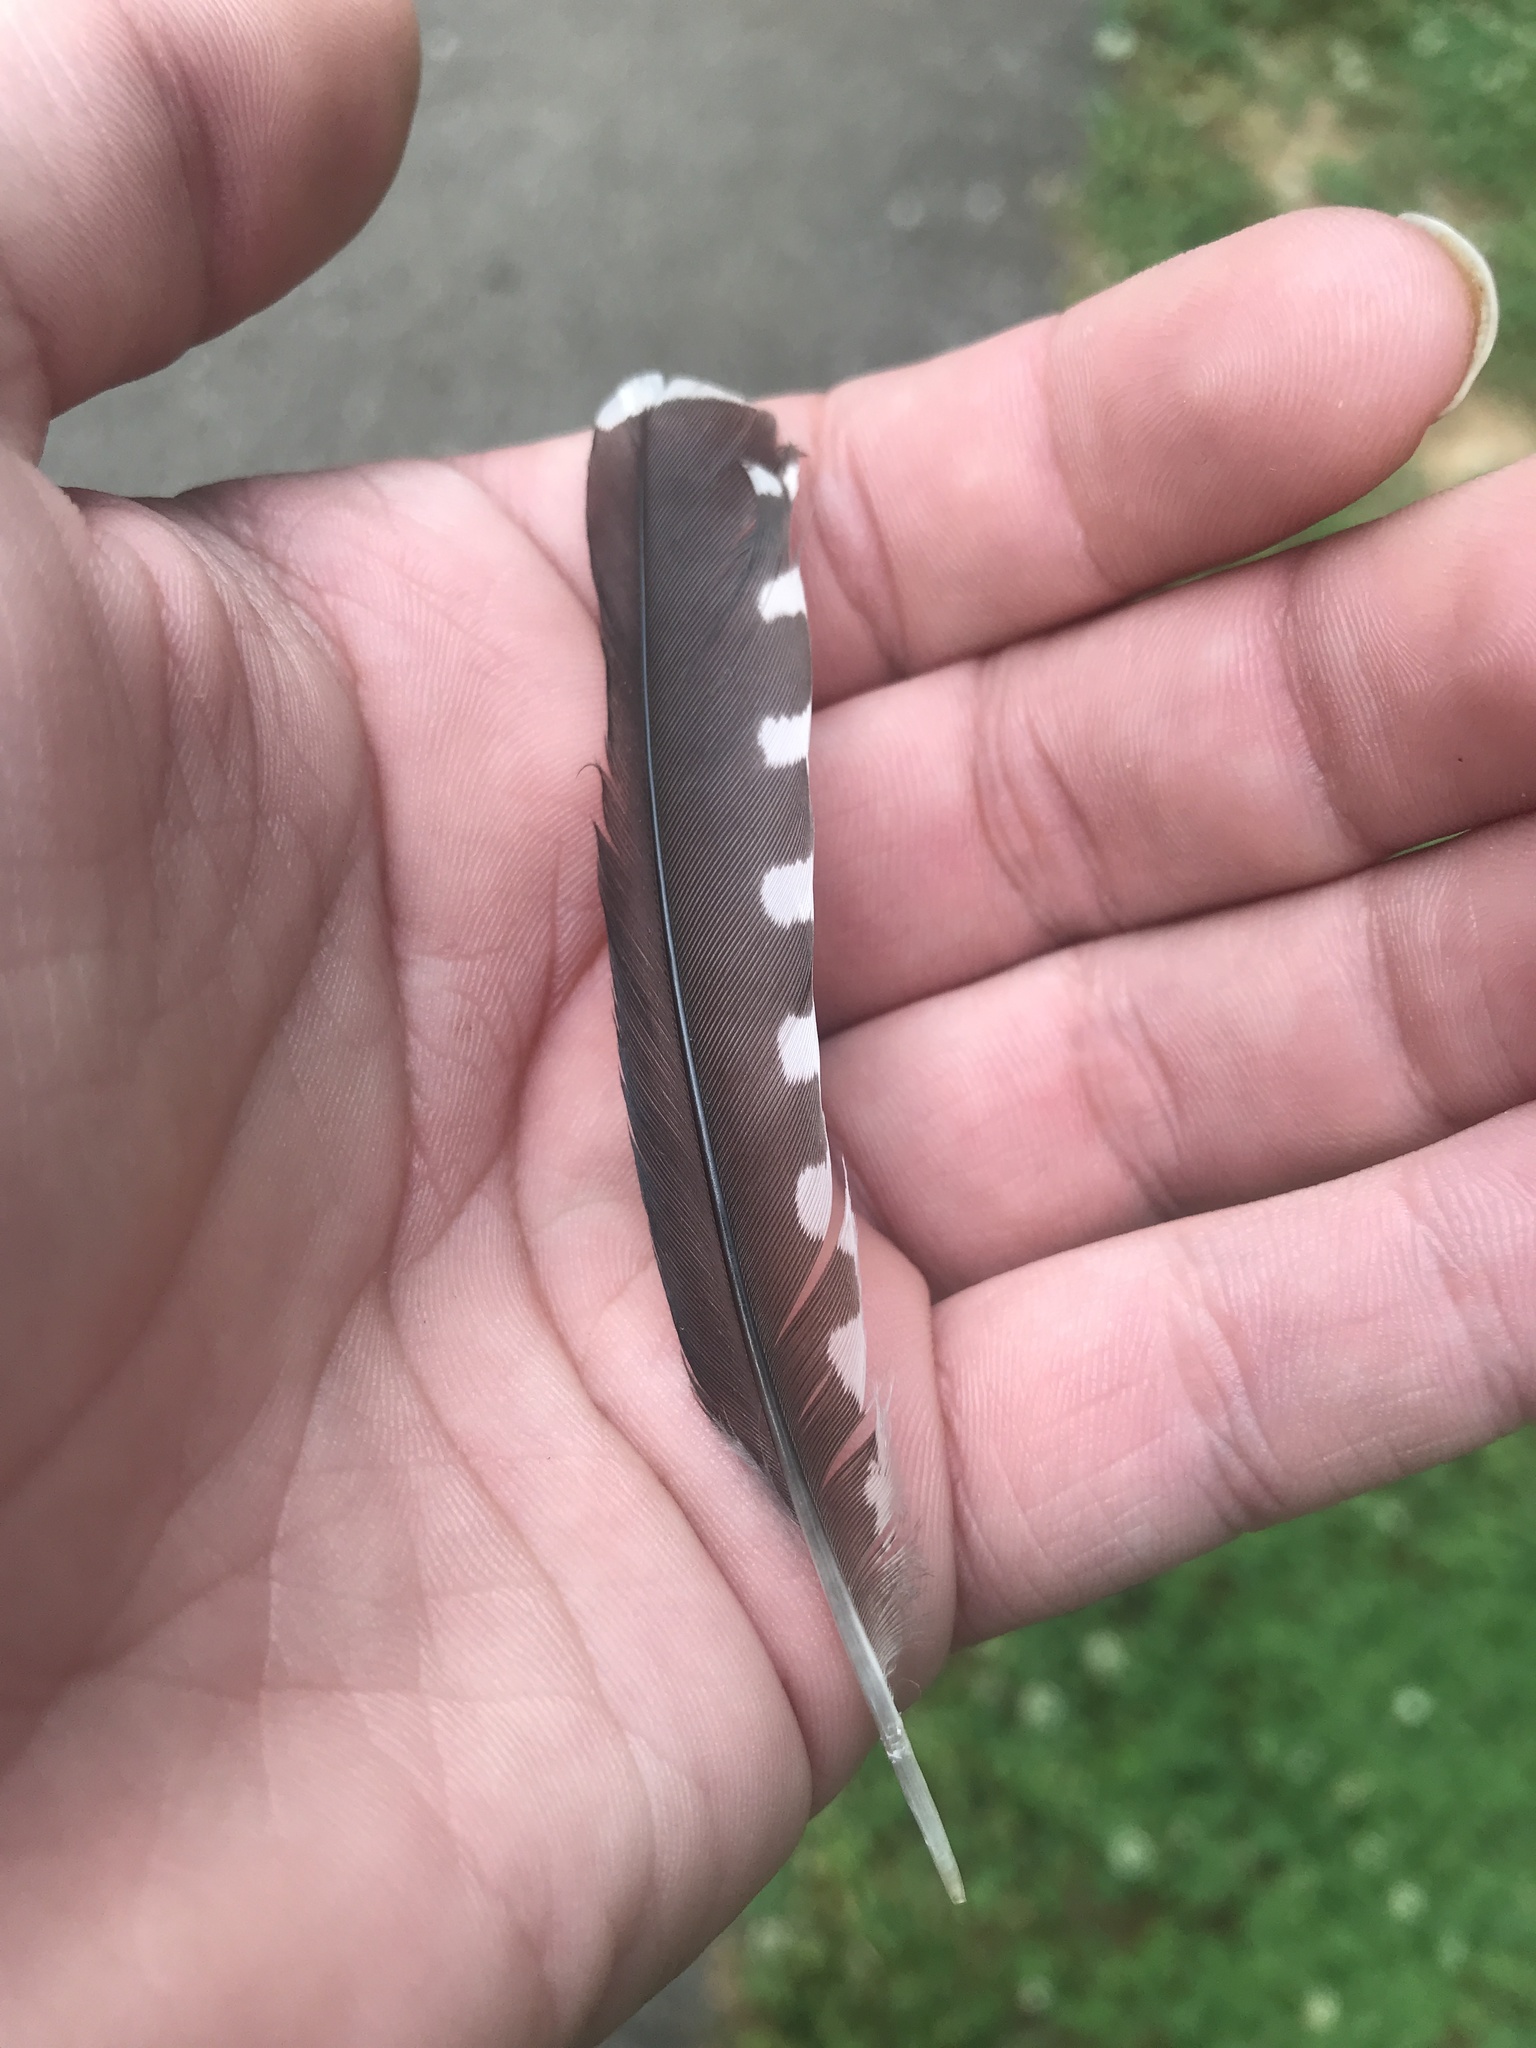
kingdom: Animalia
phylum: Chordata
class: Aves
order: Piciformes
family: Picidae
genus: Melanerpes
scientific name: Melanerpes carolinus
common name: Red-bellied woodpecker
